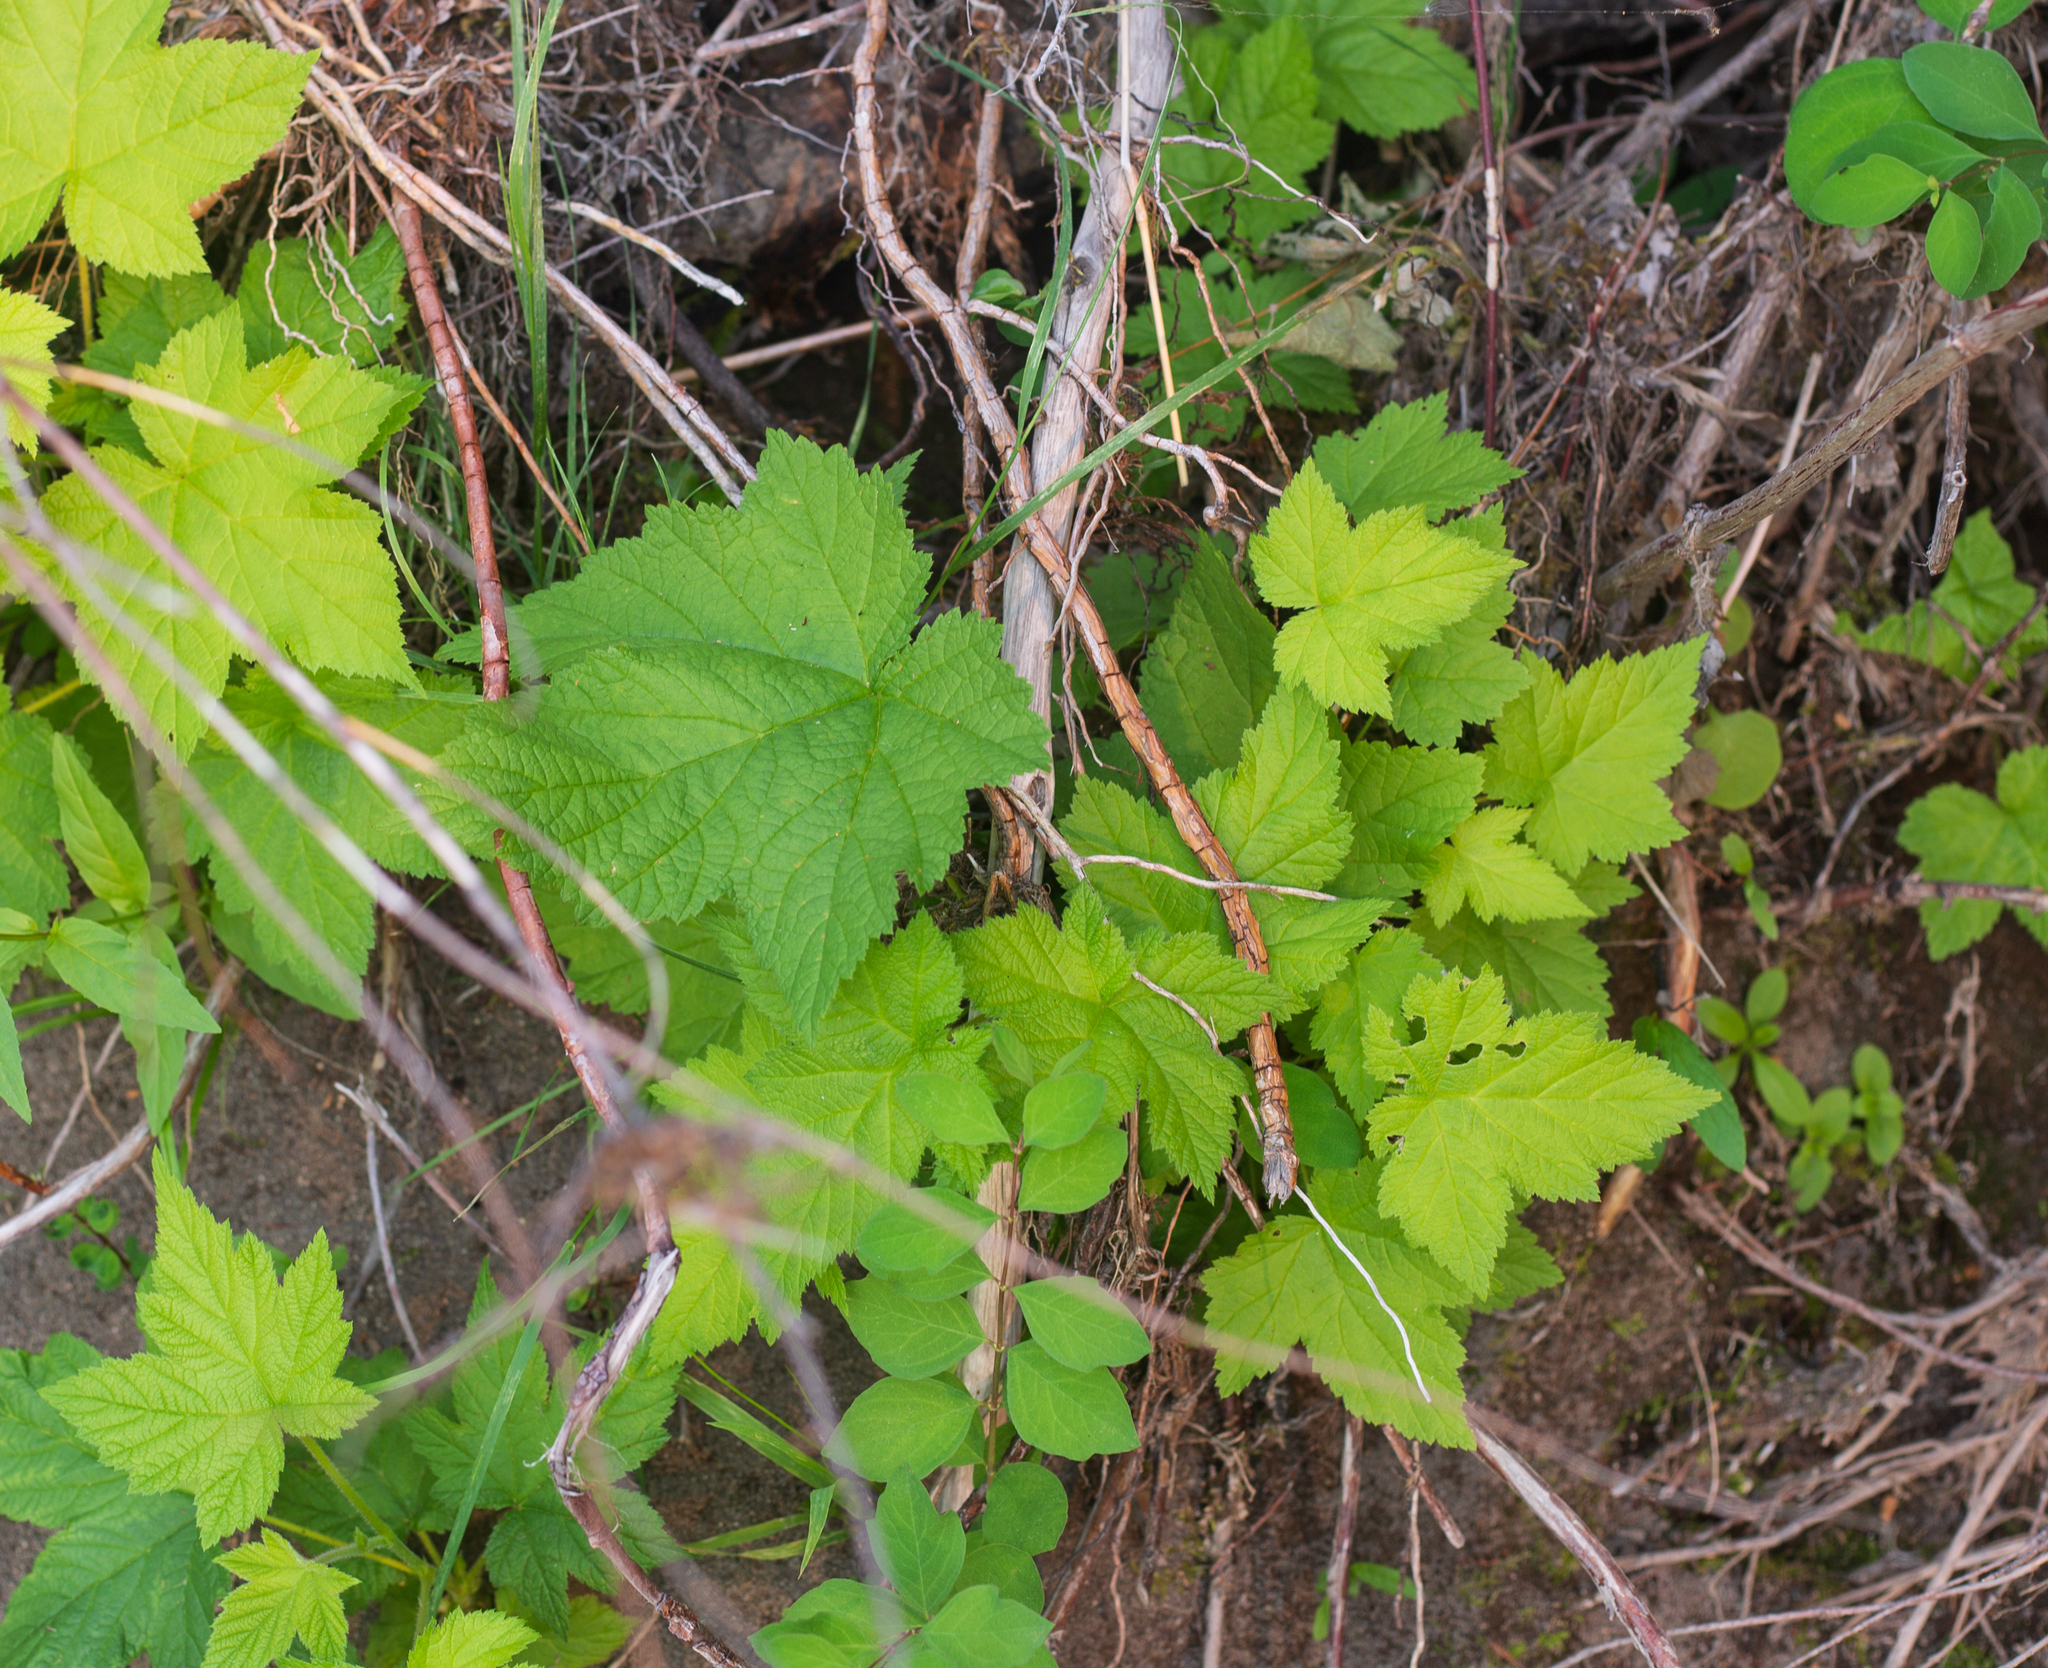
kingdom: Plantae
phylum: Tracheophyta
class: Magnoliopsida
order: Rosales
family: Rosaceae
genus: Rubus
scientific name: Rubus parviflorus
